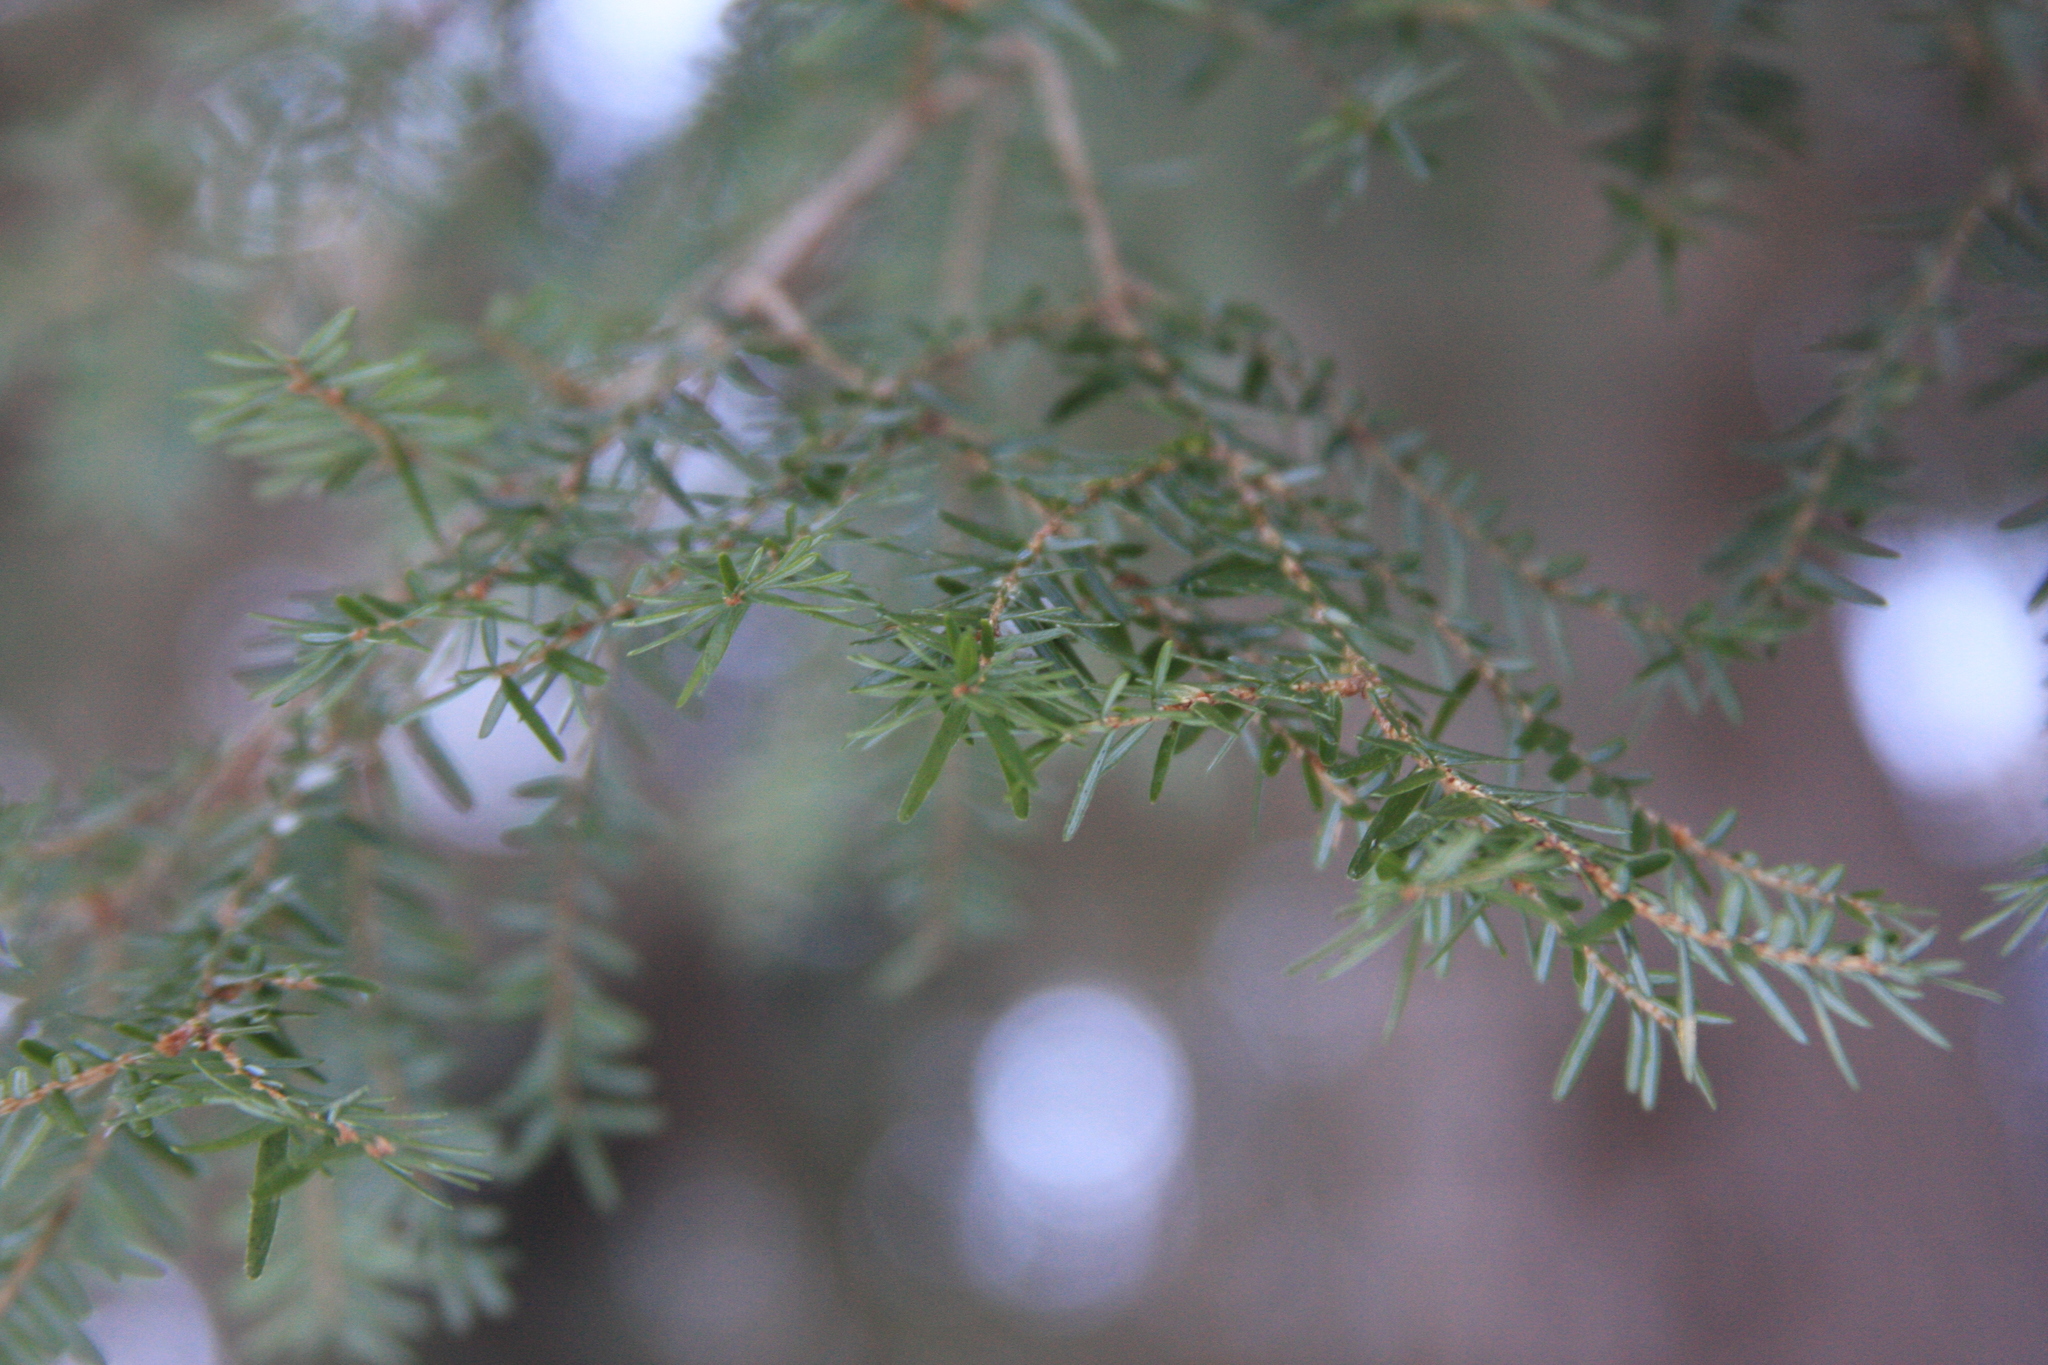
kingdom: Plantae
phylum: Tracheophyta
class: Pinopsida
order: Pinales
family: Pinaceae
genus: Tsuga
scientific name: Tsuga canadensis
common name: Eastern hemlock
